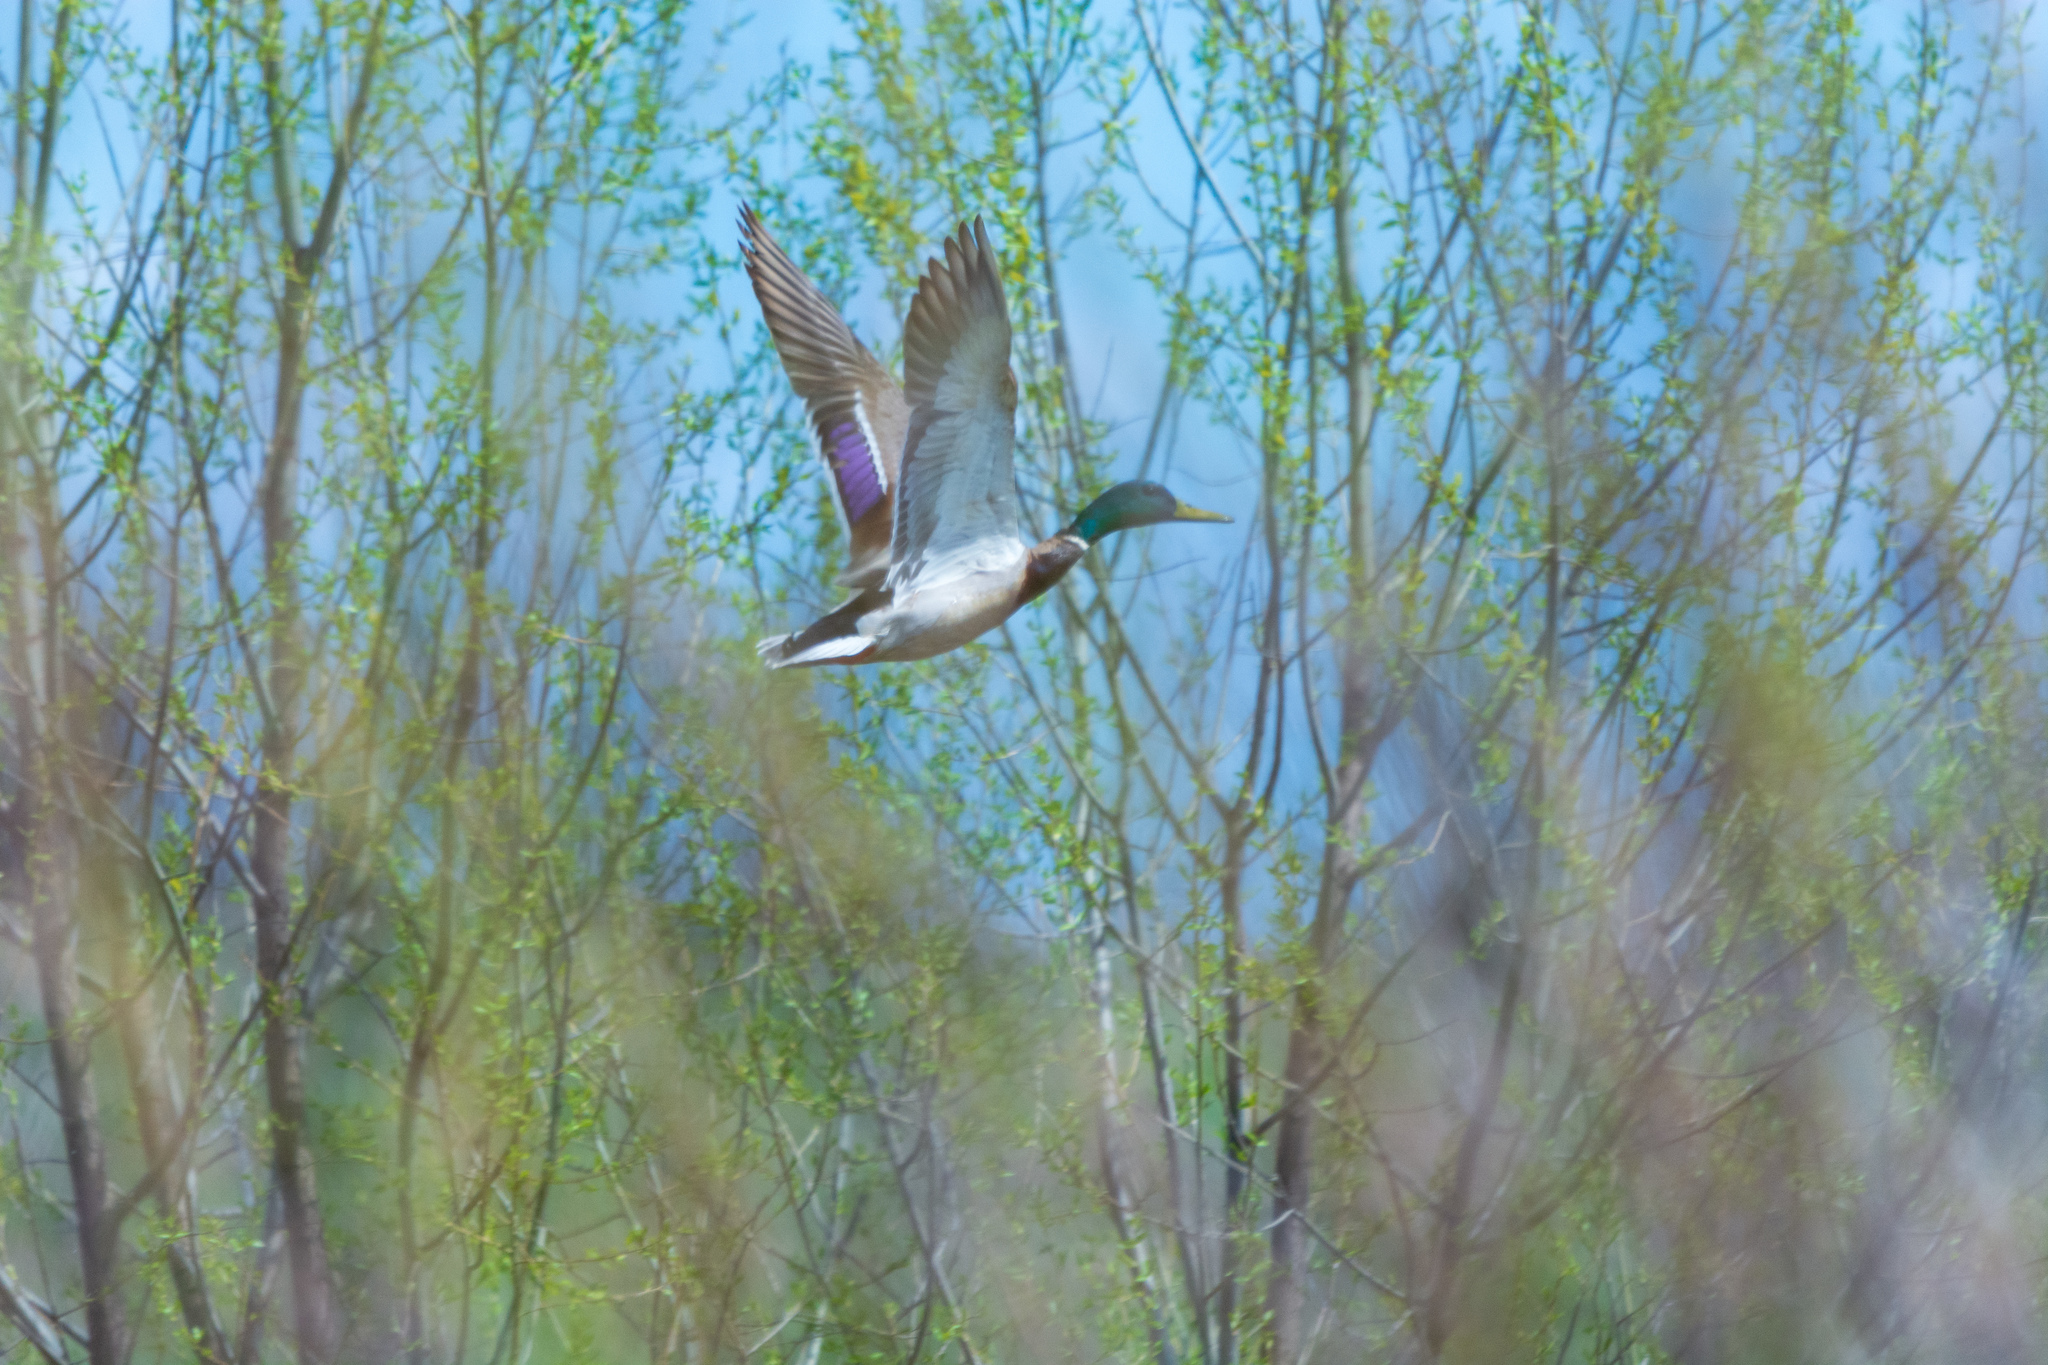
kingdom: Animalia
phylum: Chordata
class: Aves
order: Anseriformes
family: Anatidae
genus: Anas
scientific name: Anas platyrhynchos
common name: Mallard
